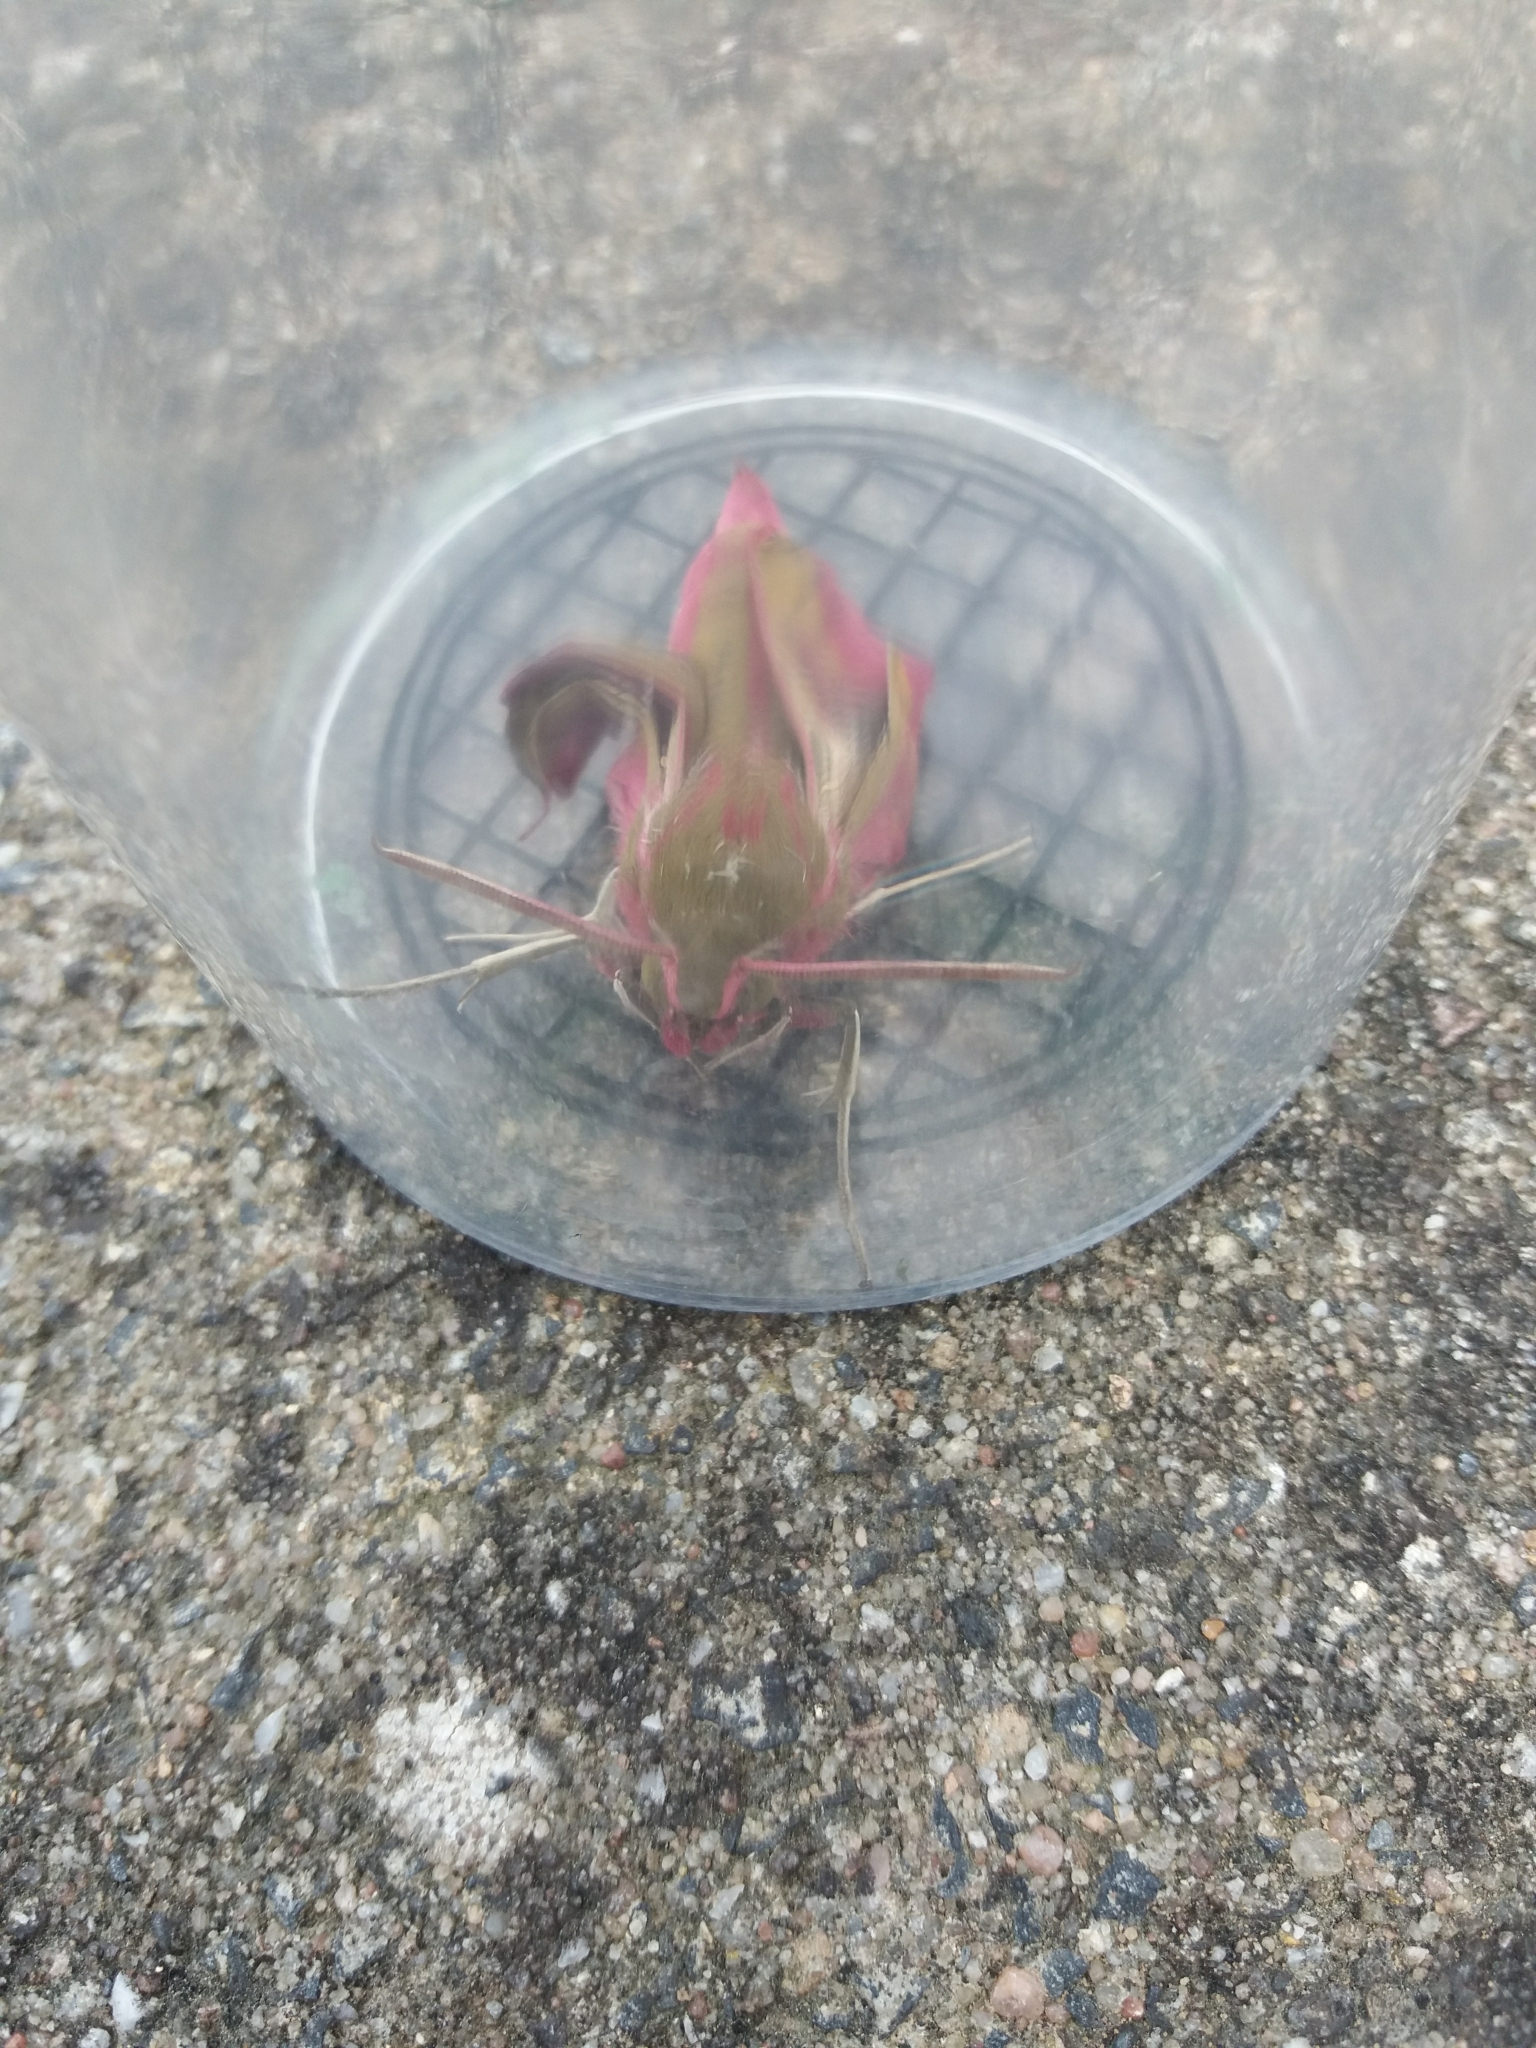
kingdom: Animalia
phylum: Arthropoda
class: Insecta
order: Lepidoptera
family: Sphingidae
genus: Deilephila
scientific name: Deilephila elpenor
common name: Elephant hawk-moth
